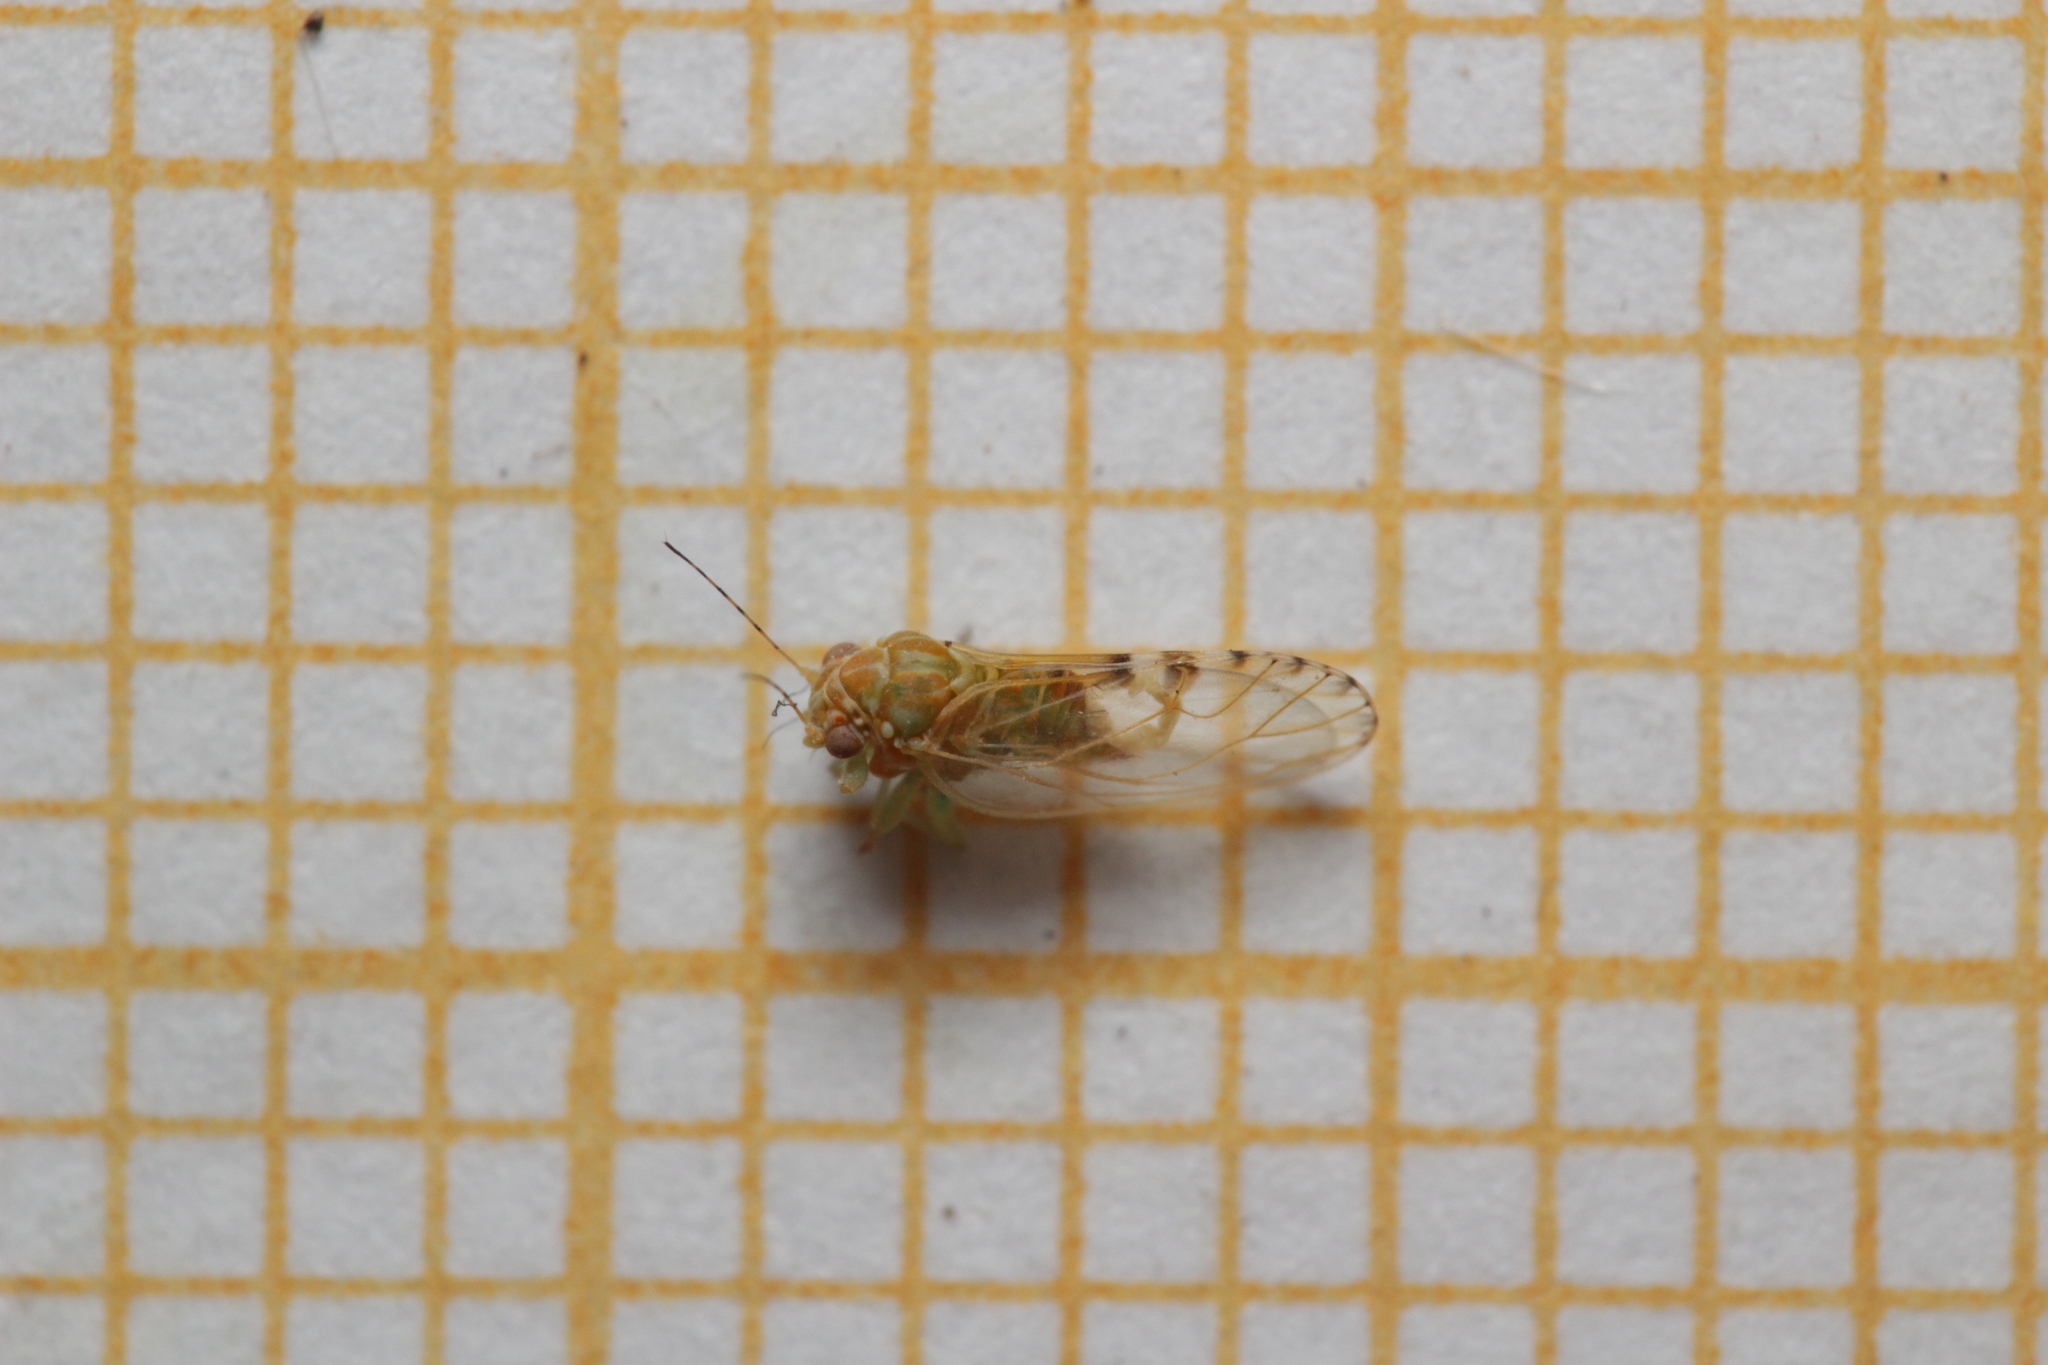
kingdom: Animalia
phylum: Arthropoda
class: Insecta
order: Hemiptera
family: Psyllidae
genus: Cacopsylla
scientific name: Cacopsylla crataegi
